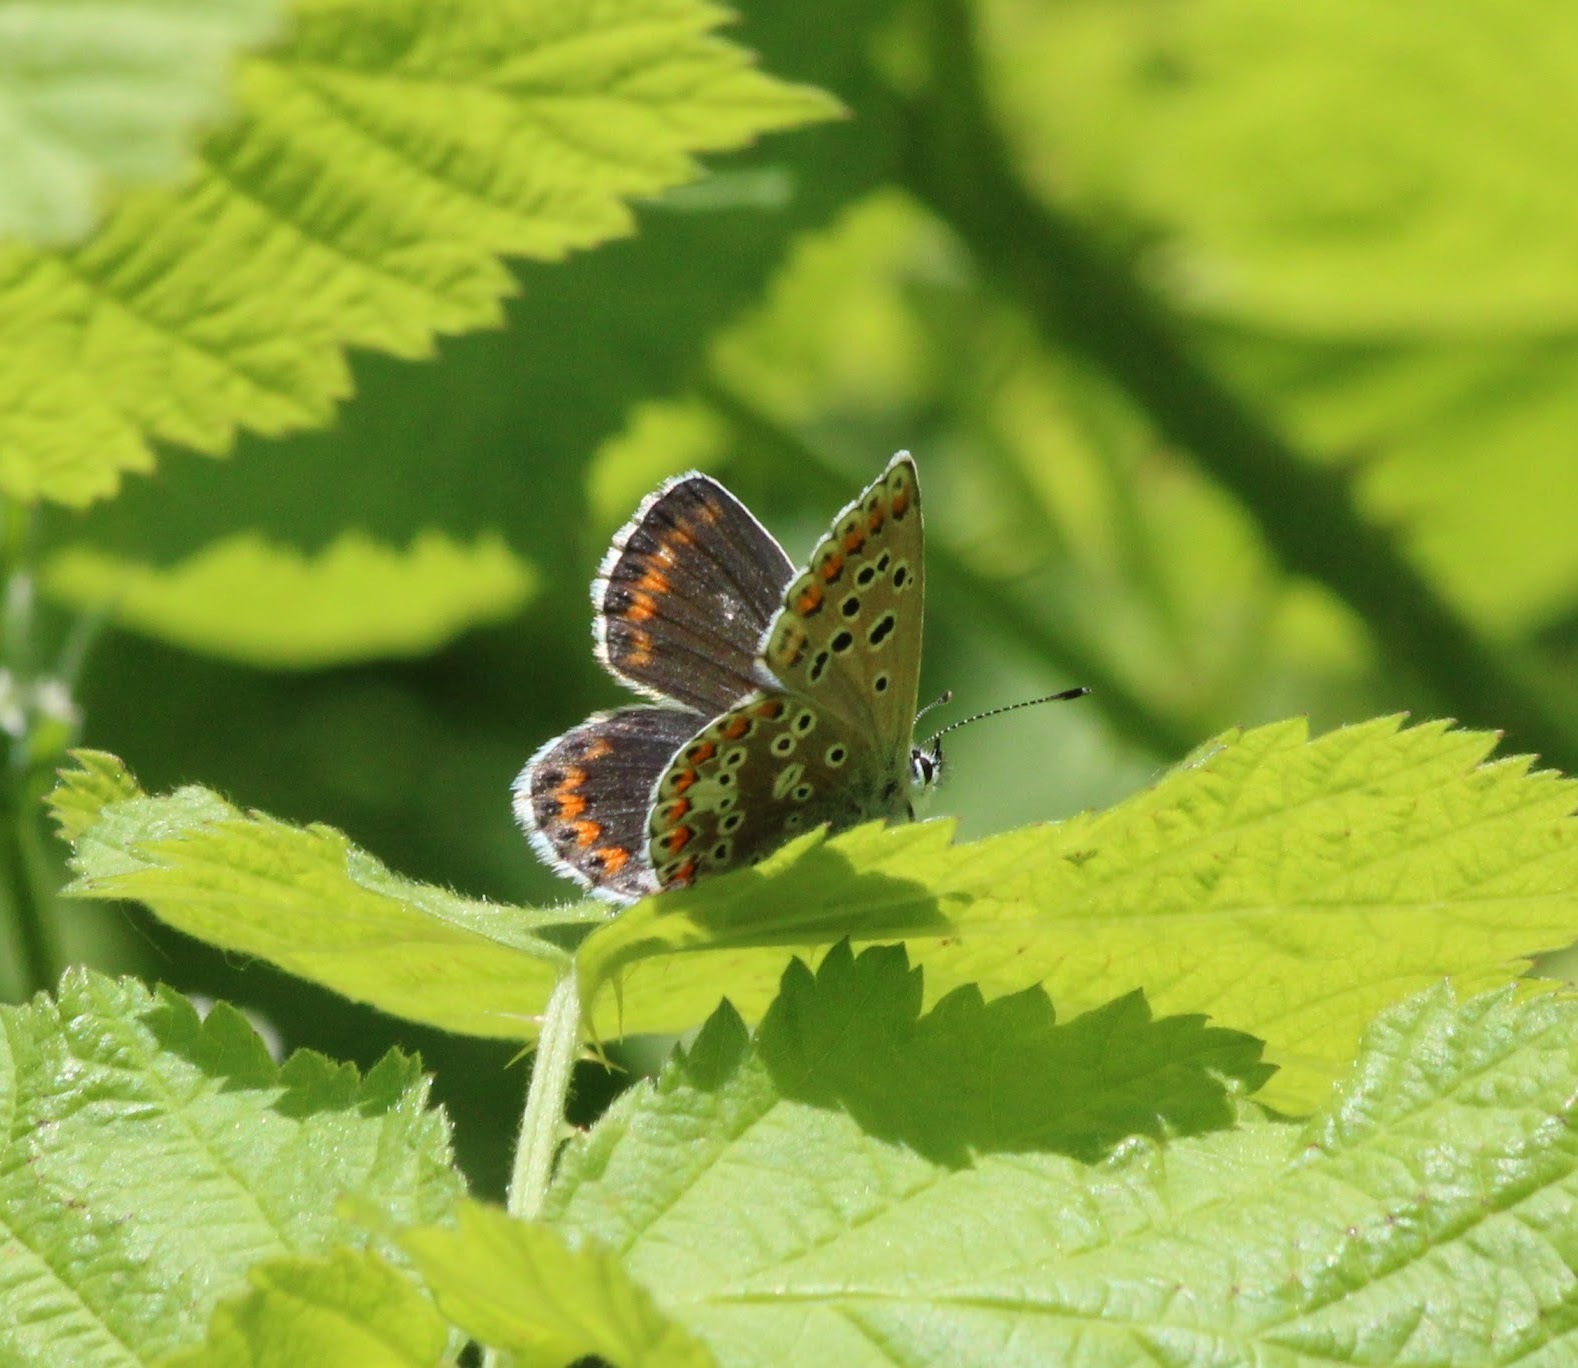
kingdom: Animalia
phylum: Arthropoda
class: Insecta
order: Lepidoptera
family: Lycaenidae
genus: Polyommatus
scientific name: Polyommatus eros
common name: Eros blue
